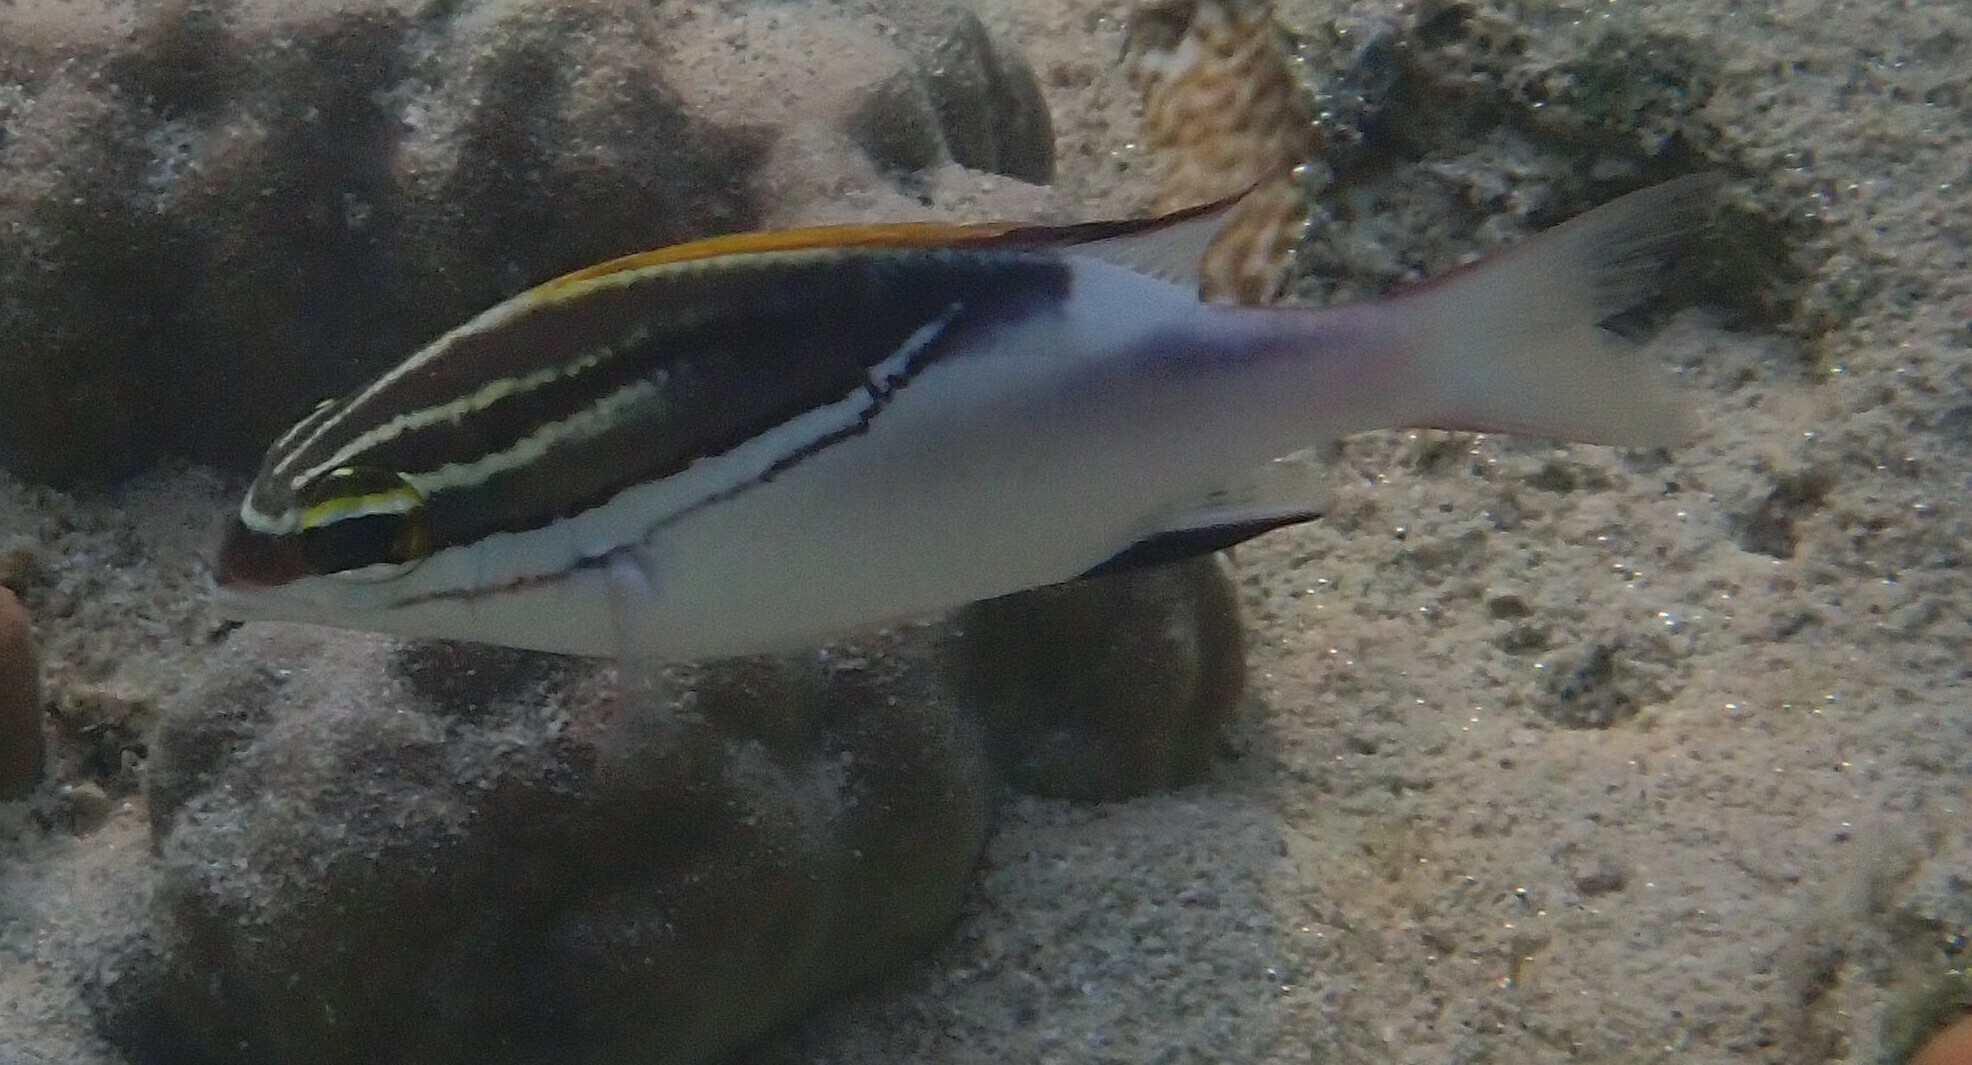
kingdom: Animalia
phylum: Chordata
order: Perciformes
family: Nemipteridae
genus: Scolopsis
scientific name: Scolopsis bilineata
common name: Two-lined monocle bream
